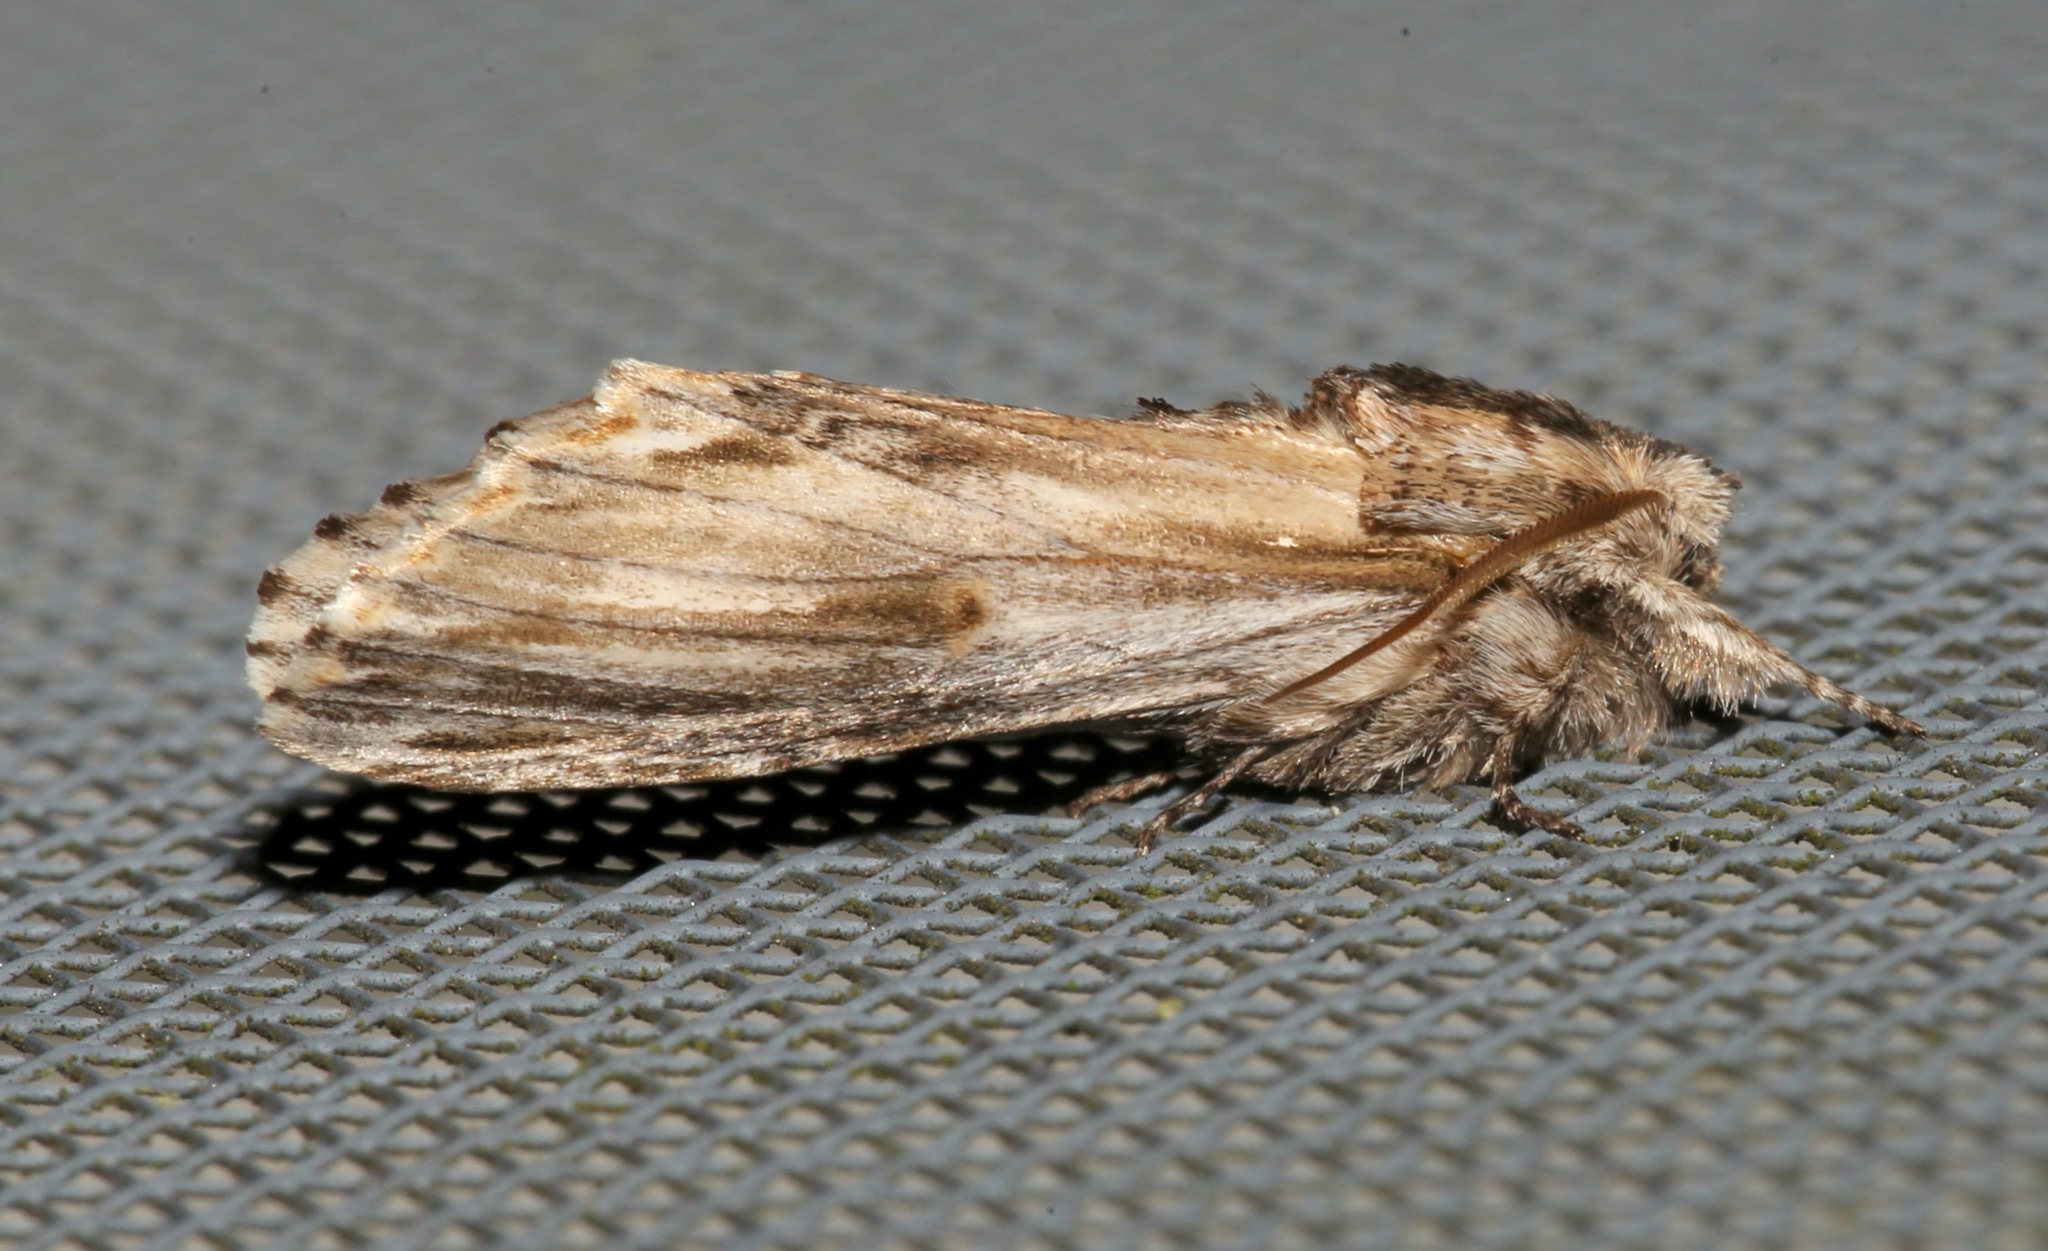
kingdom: Animalia
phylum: Arthropoda
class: Insecta
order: Lepidoptera
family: Notodontidae
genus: Oligocentria
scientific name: Oligocentria Ianassa lignicolor
